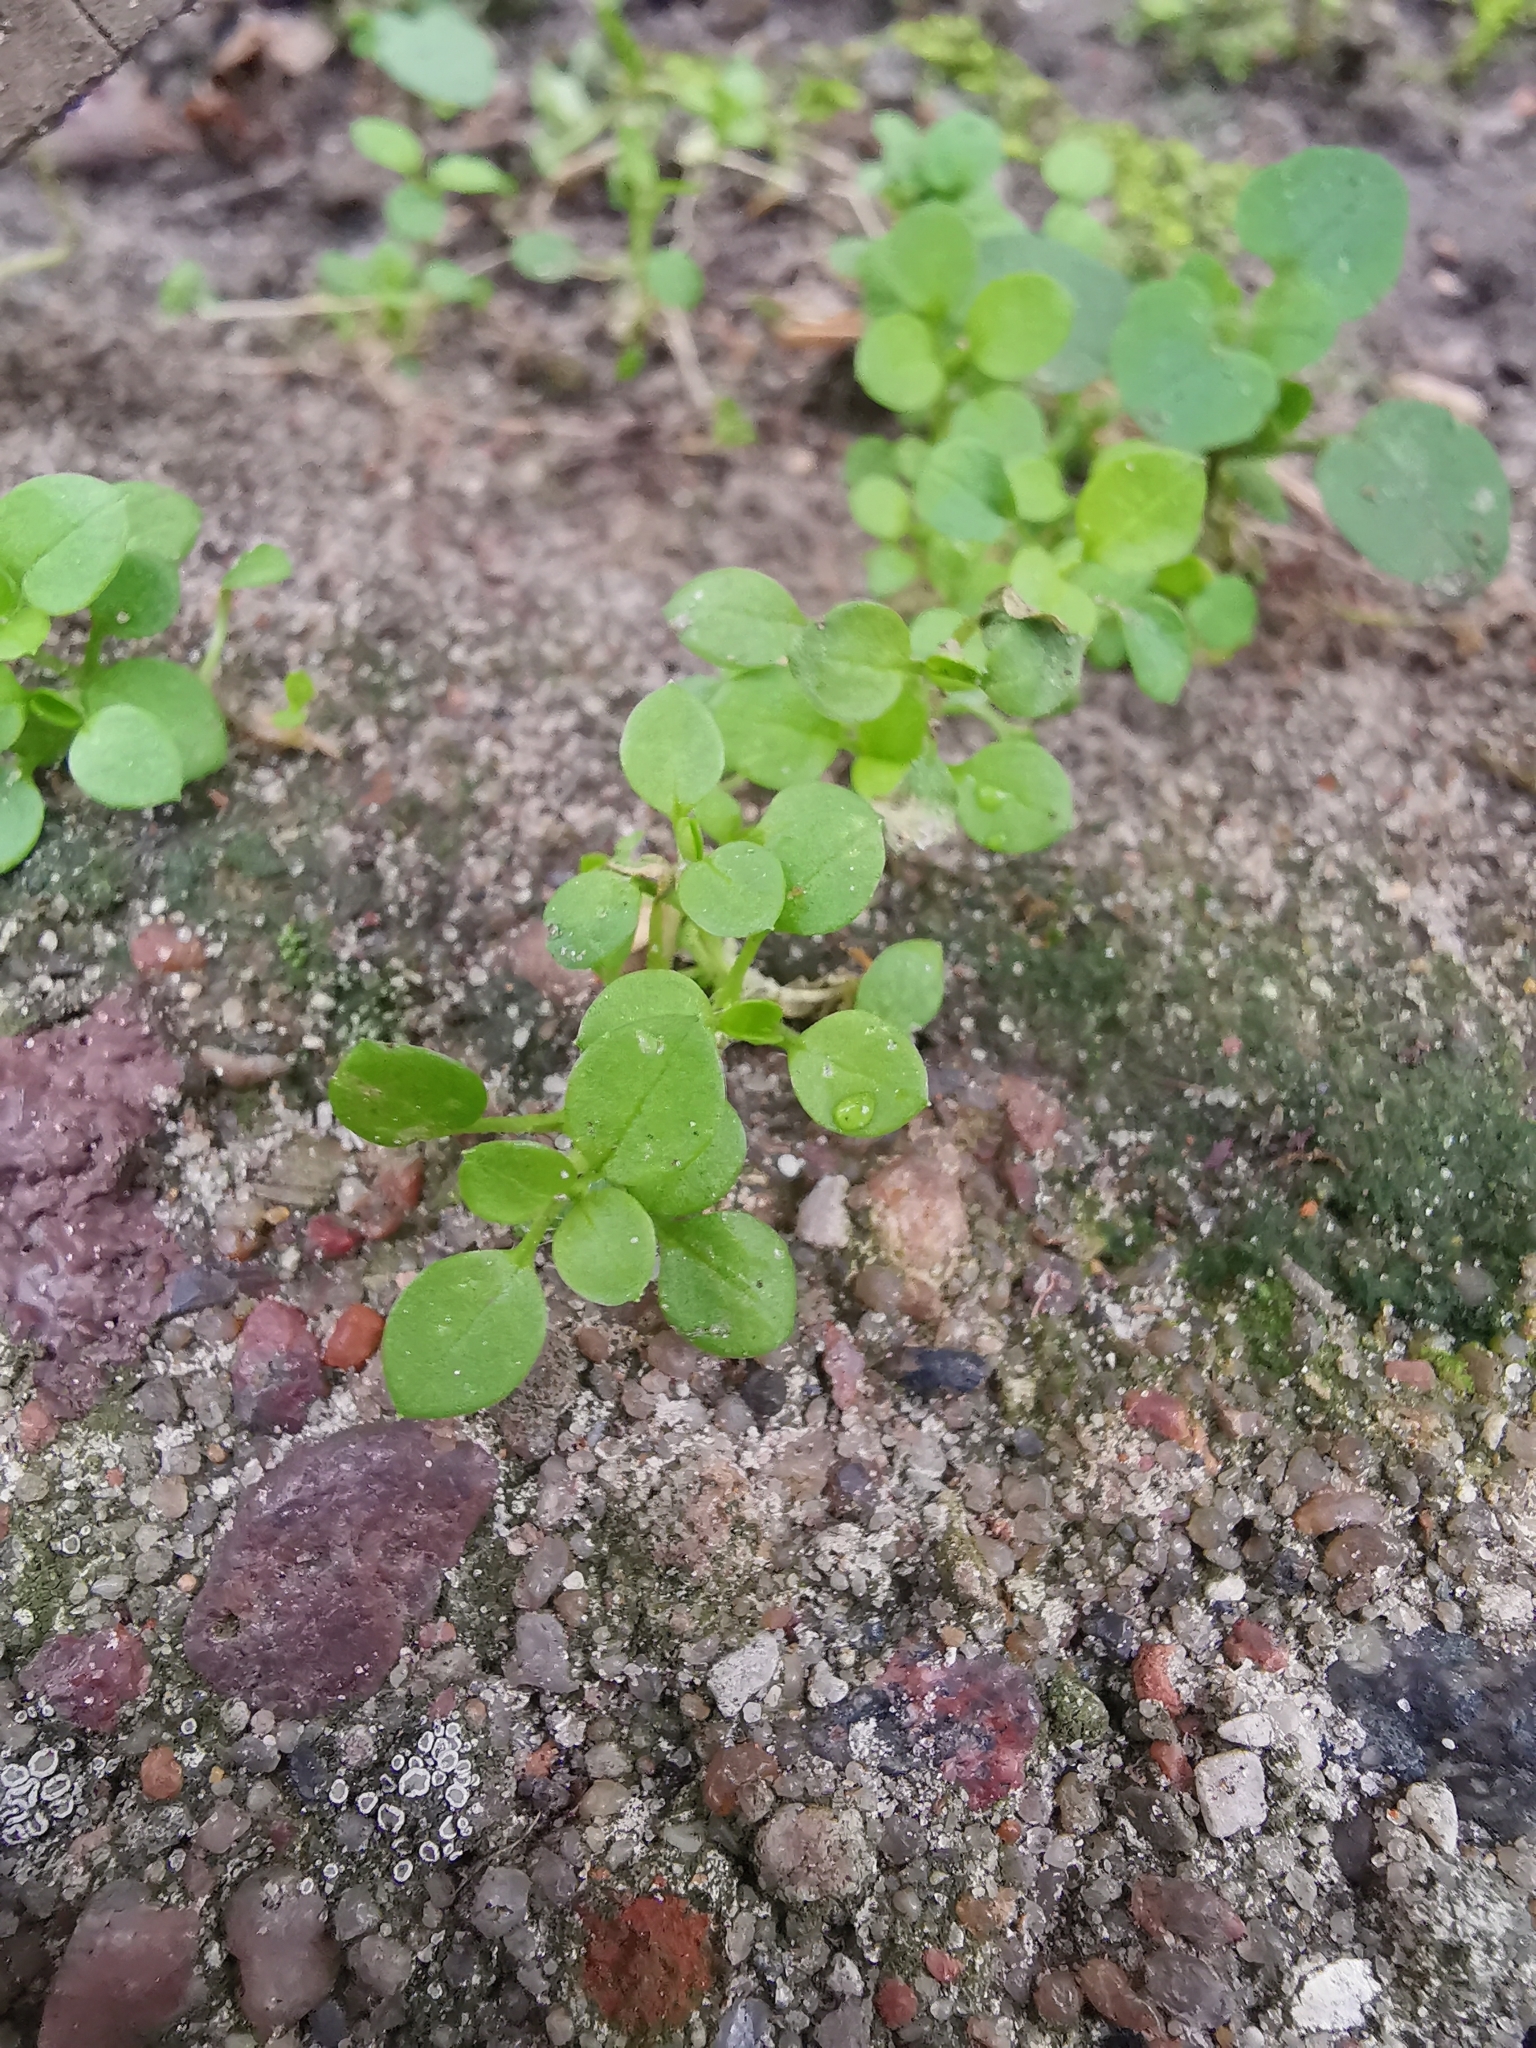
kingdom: Plantae
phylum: Tracheophyta
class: Magnoliopsida
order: Caryophyllales
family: Caryophyllaceae
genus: Stellaria
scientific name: Stellaria media
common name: Common chickweed
